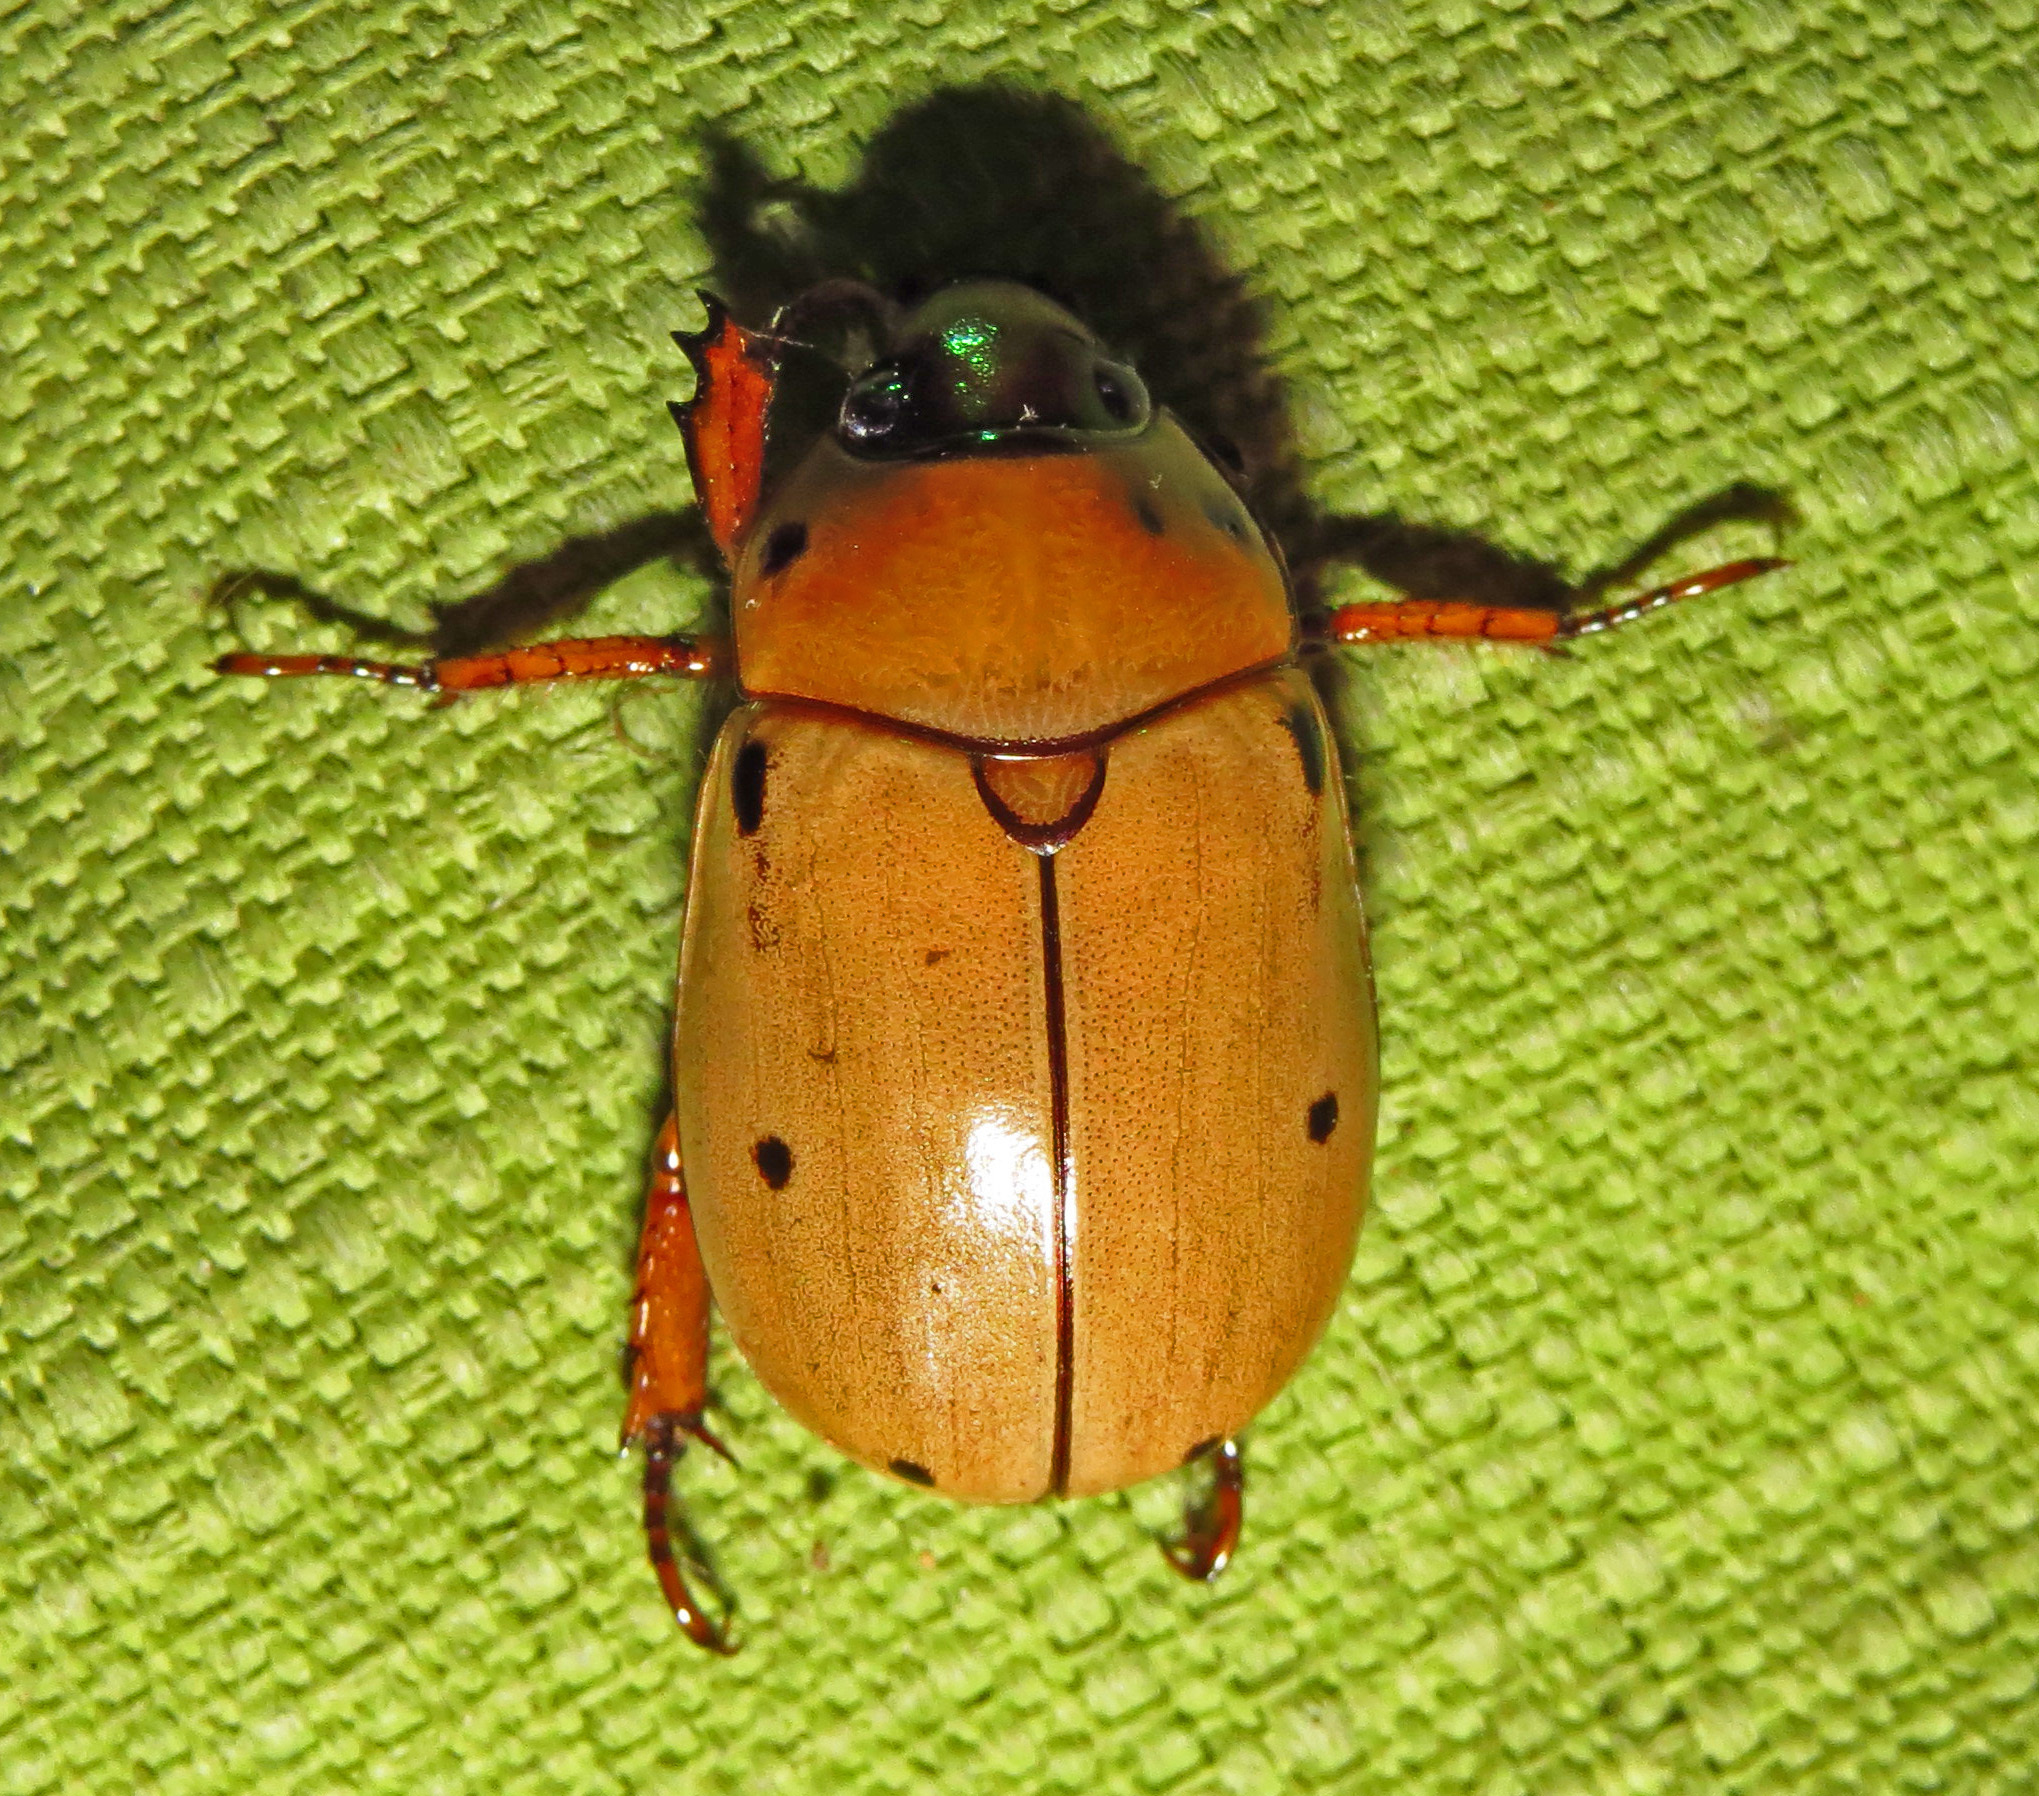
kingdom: Animalia
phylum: Arthropoda
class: Insecta
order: Coleoptera
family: Scarabaeidae
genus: Pelidnota
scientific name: Pelidnota punctata
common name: Grapevine beetle
